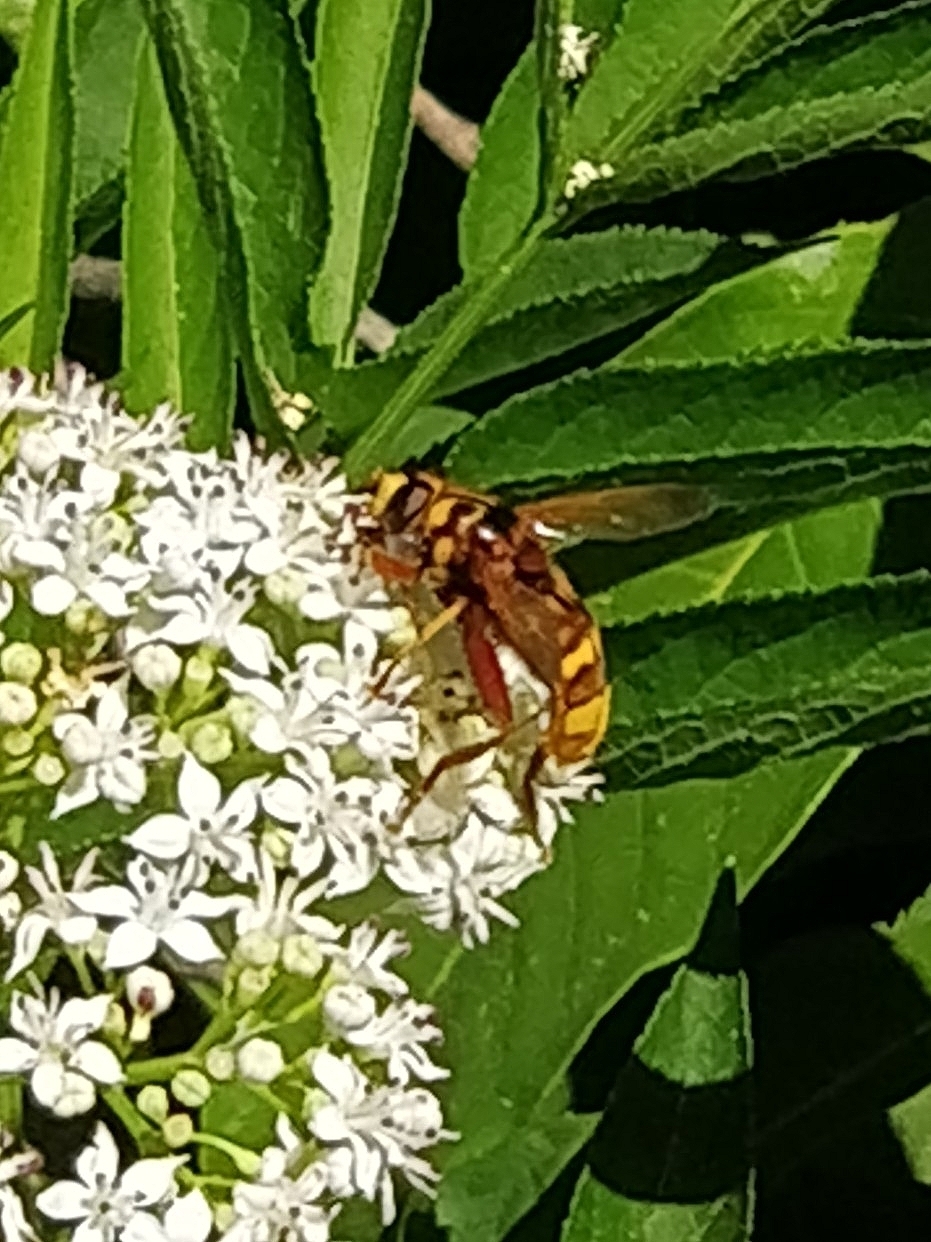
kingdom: Animalia
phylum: Arthropoda
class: Insecta
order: Diptera
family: Syrphidae
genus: Milesia
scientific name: Milesia crabroniformis
